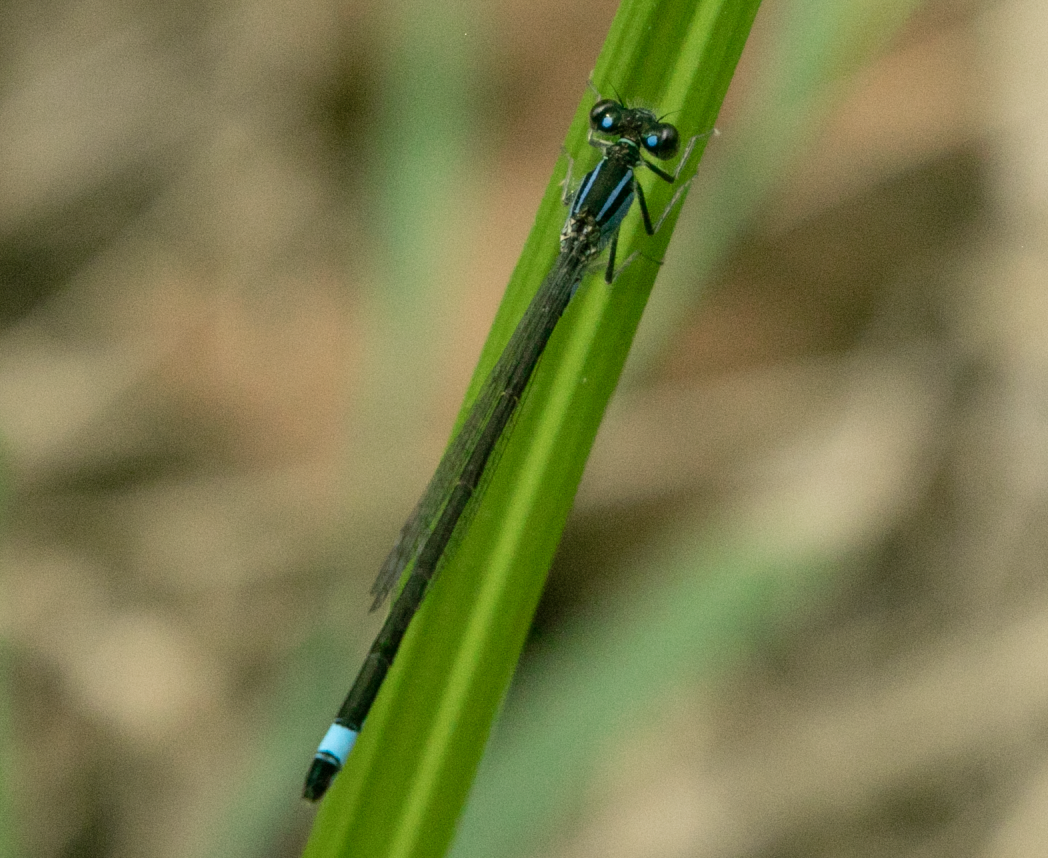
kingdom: Animalia
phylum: Arthropoda
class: Insecta
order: Odonata
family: Coenagrionidae
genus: Ischnura
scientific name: Ischnura elegans
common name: Blue-tailed damselfly
